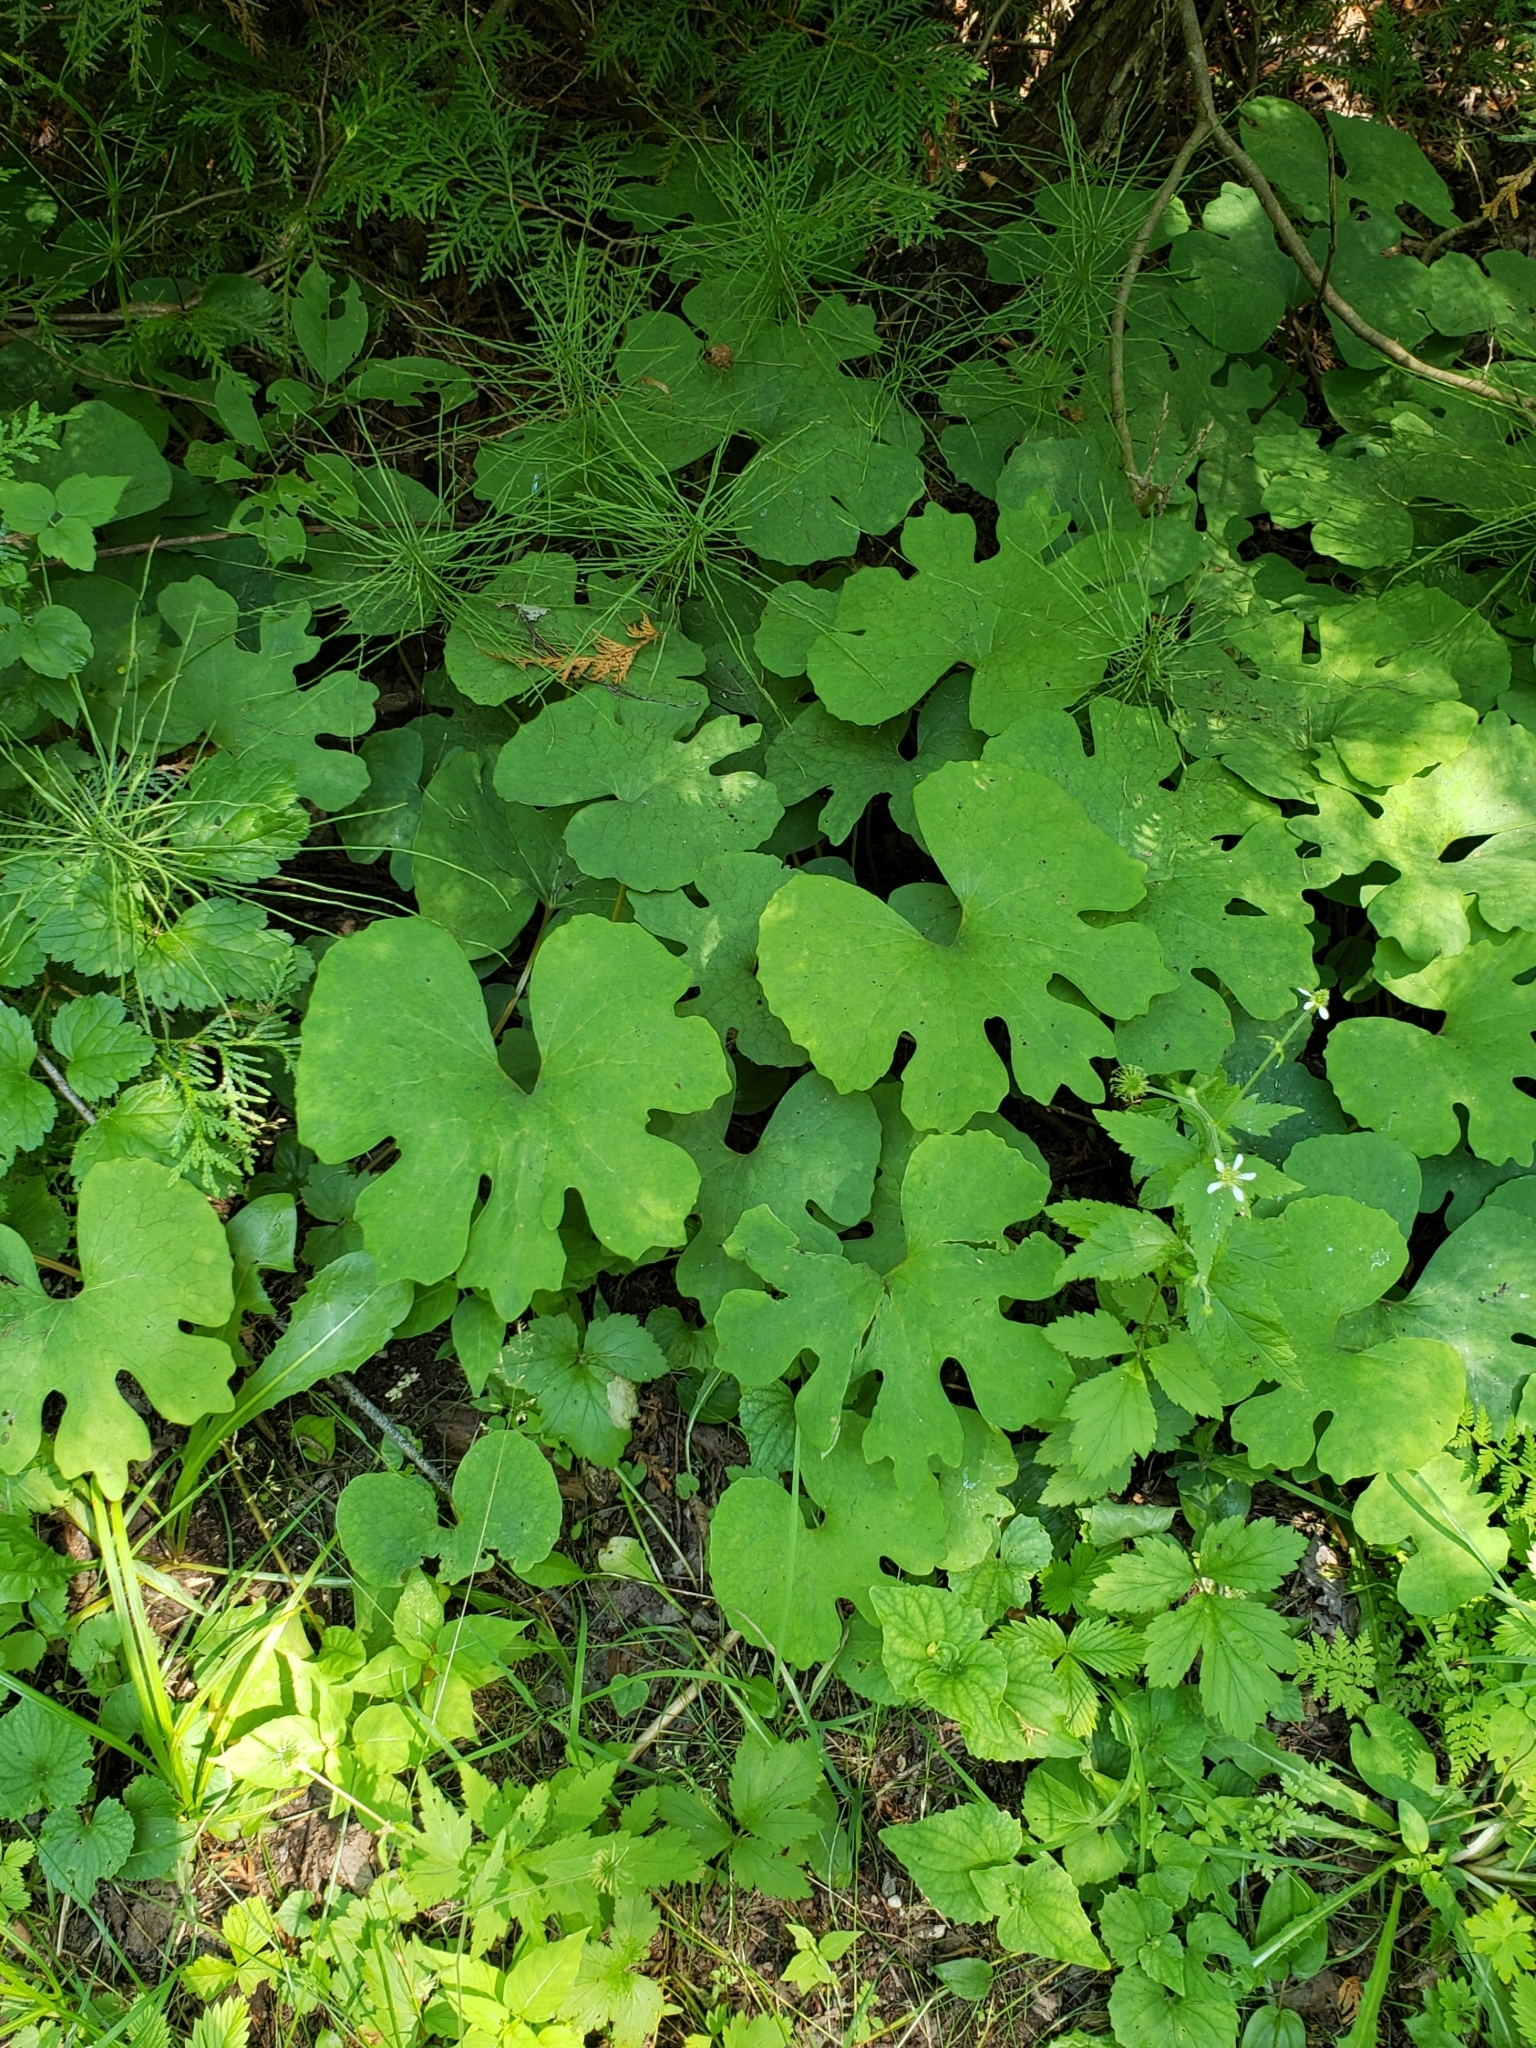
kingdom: Plantae
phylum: Tracheophyta
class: Magnoliopsida
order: Ranunculales
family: Papaveraceae
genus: Sanguinaria
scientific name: Sanguinaria canadensis
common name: Bloodroot
